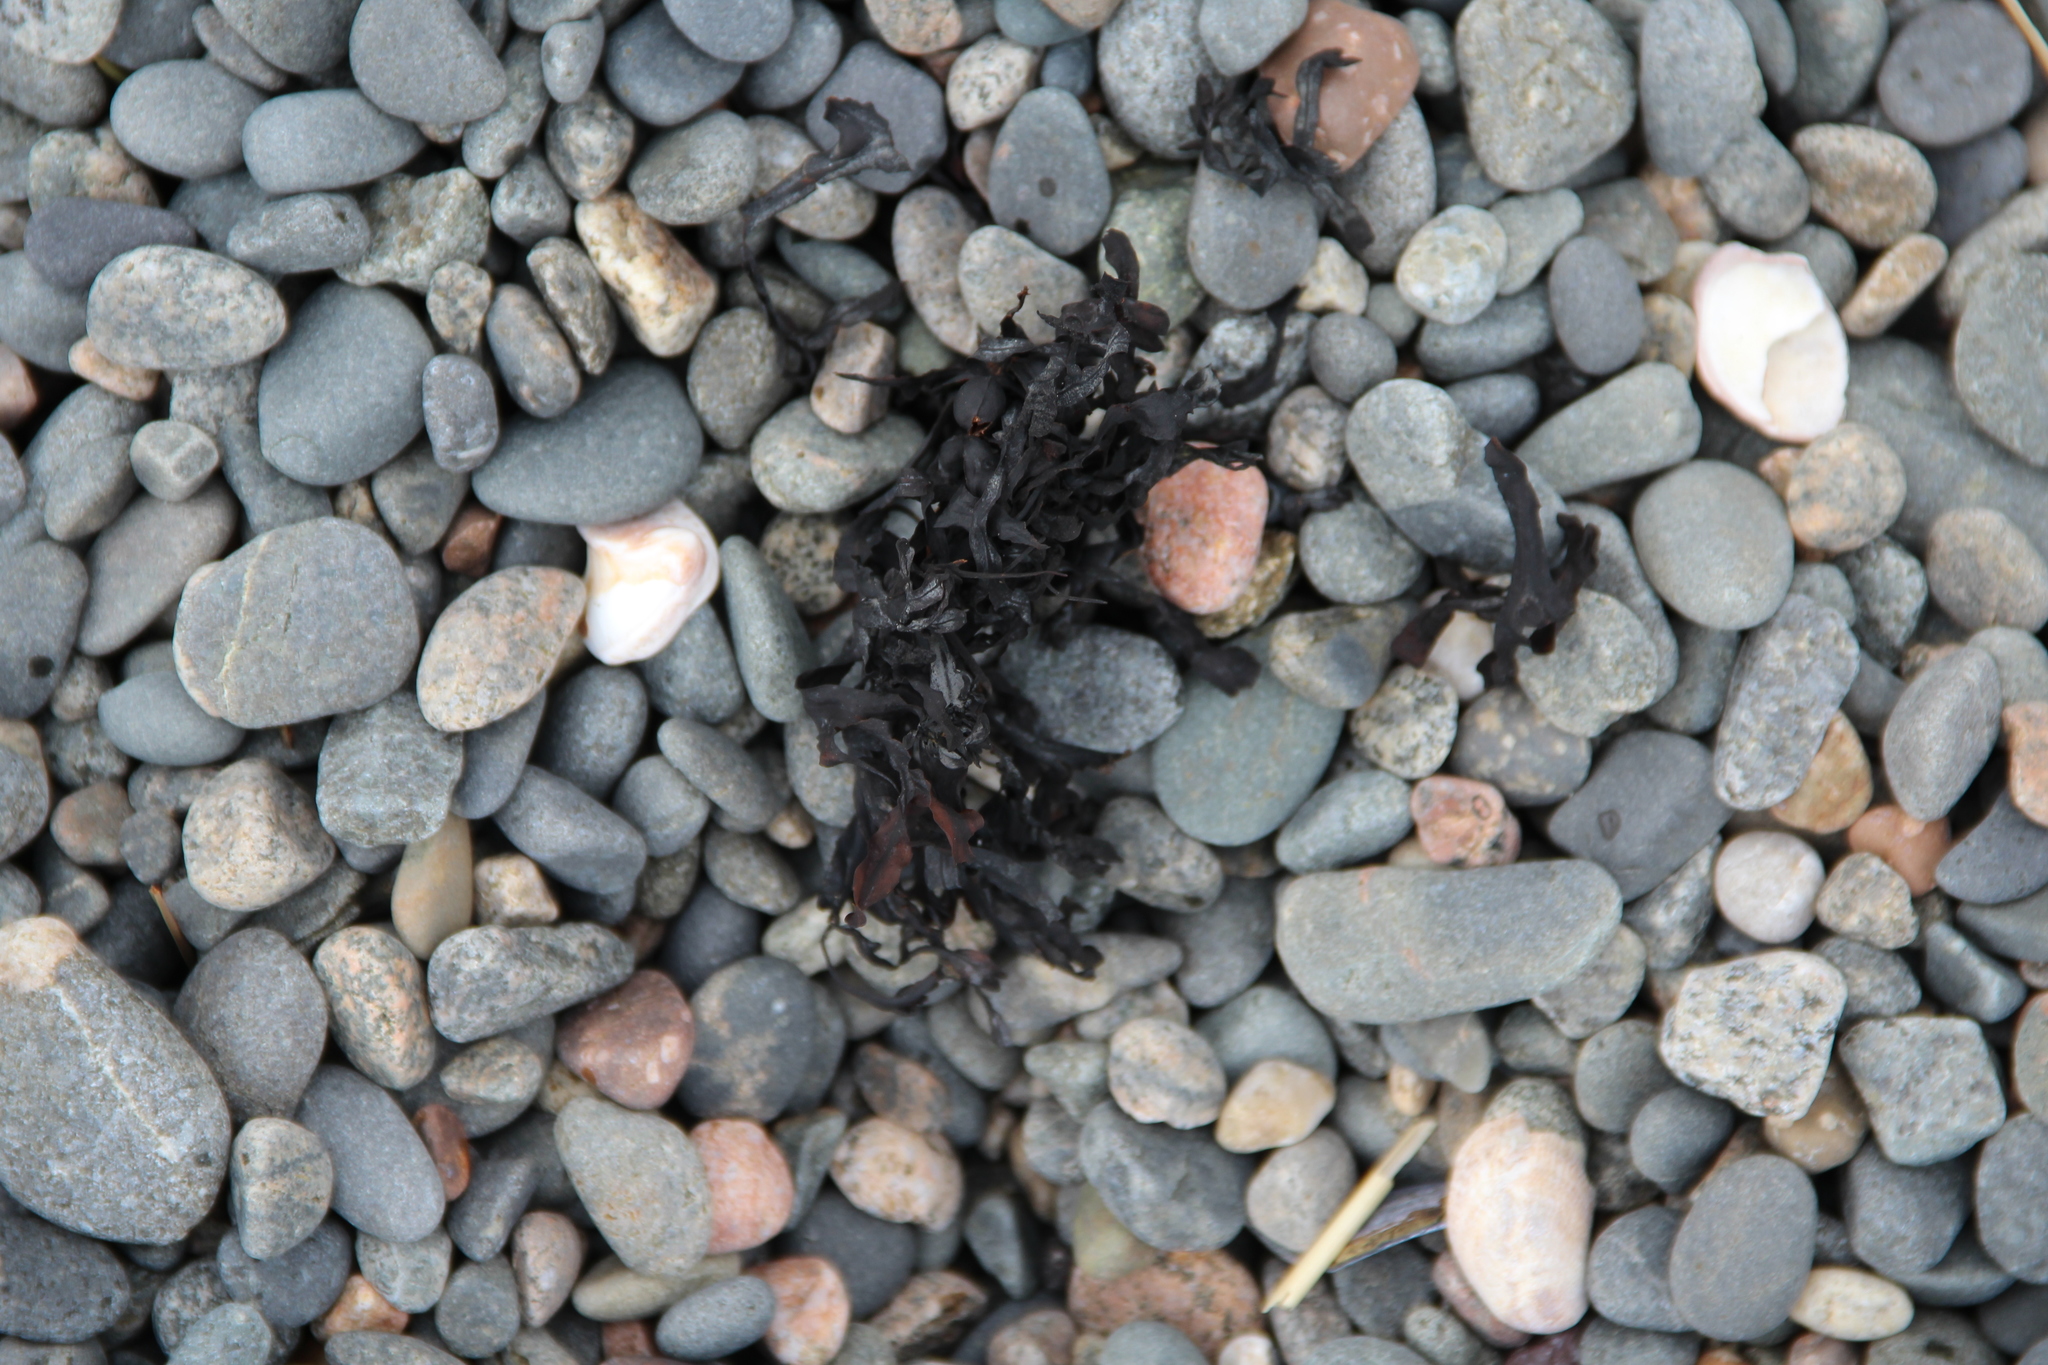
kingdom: Chromista
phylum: Ochrophyta
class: Phaeophyceae
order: Fucales
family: Fucaceae
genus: Fucus
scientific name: Fucus vesiculosus
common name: Bladder wrack
